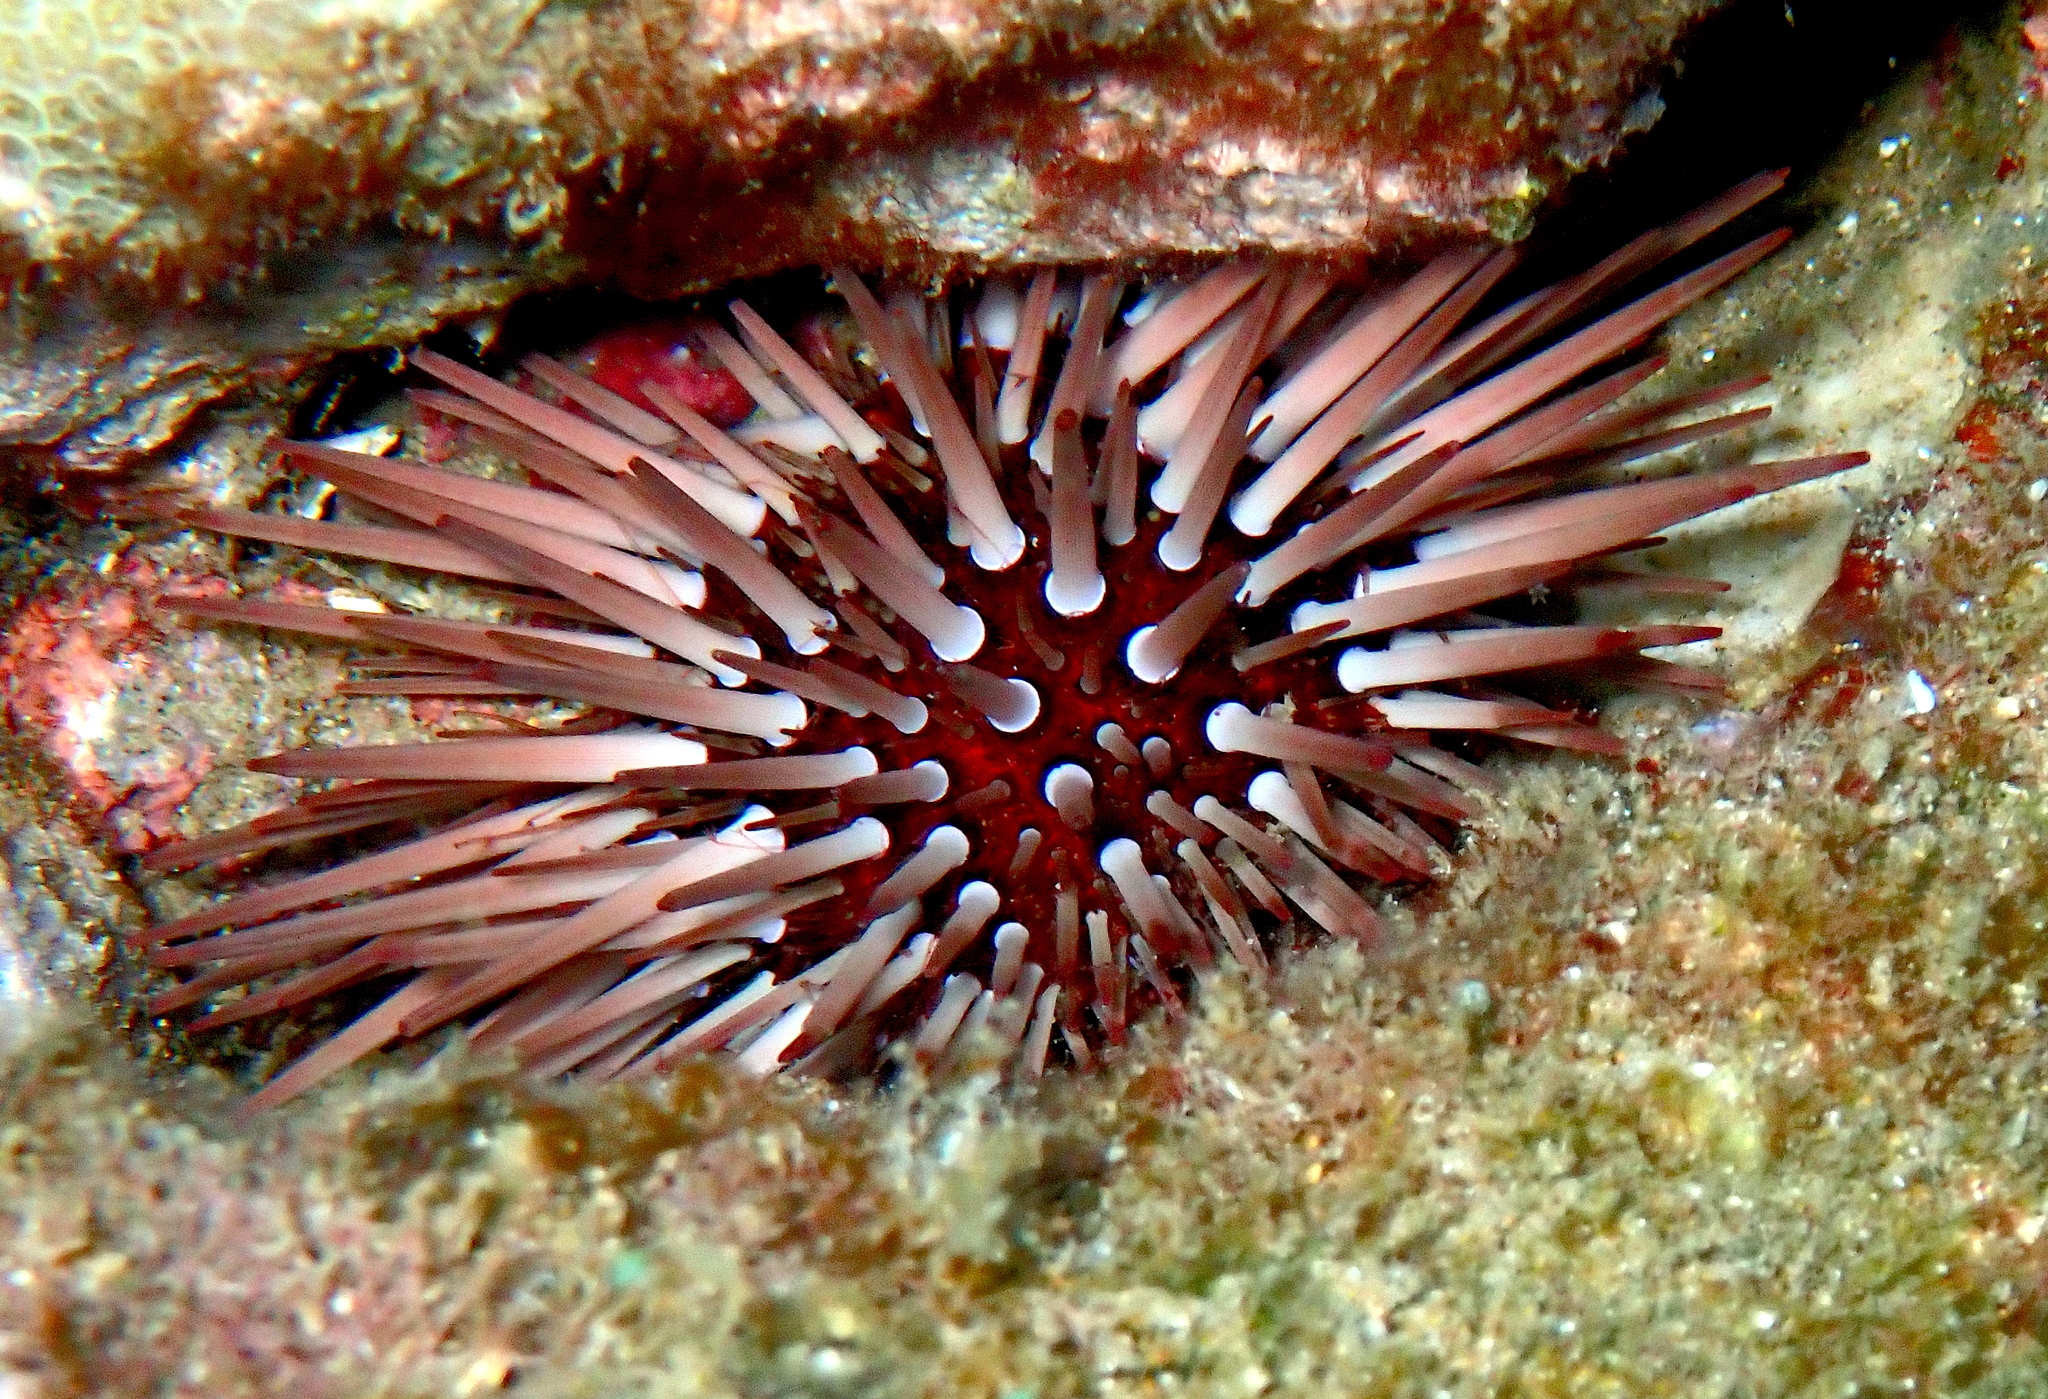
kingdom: Animalia
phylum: Echinodermata
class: Echinoidea
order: Camarodonta
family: Echinometridae
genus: Echinometra
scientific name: Echinometra mathaei
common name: Rock-boring urchin
